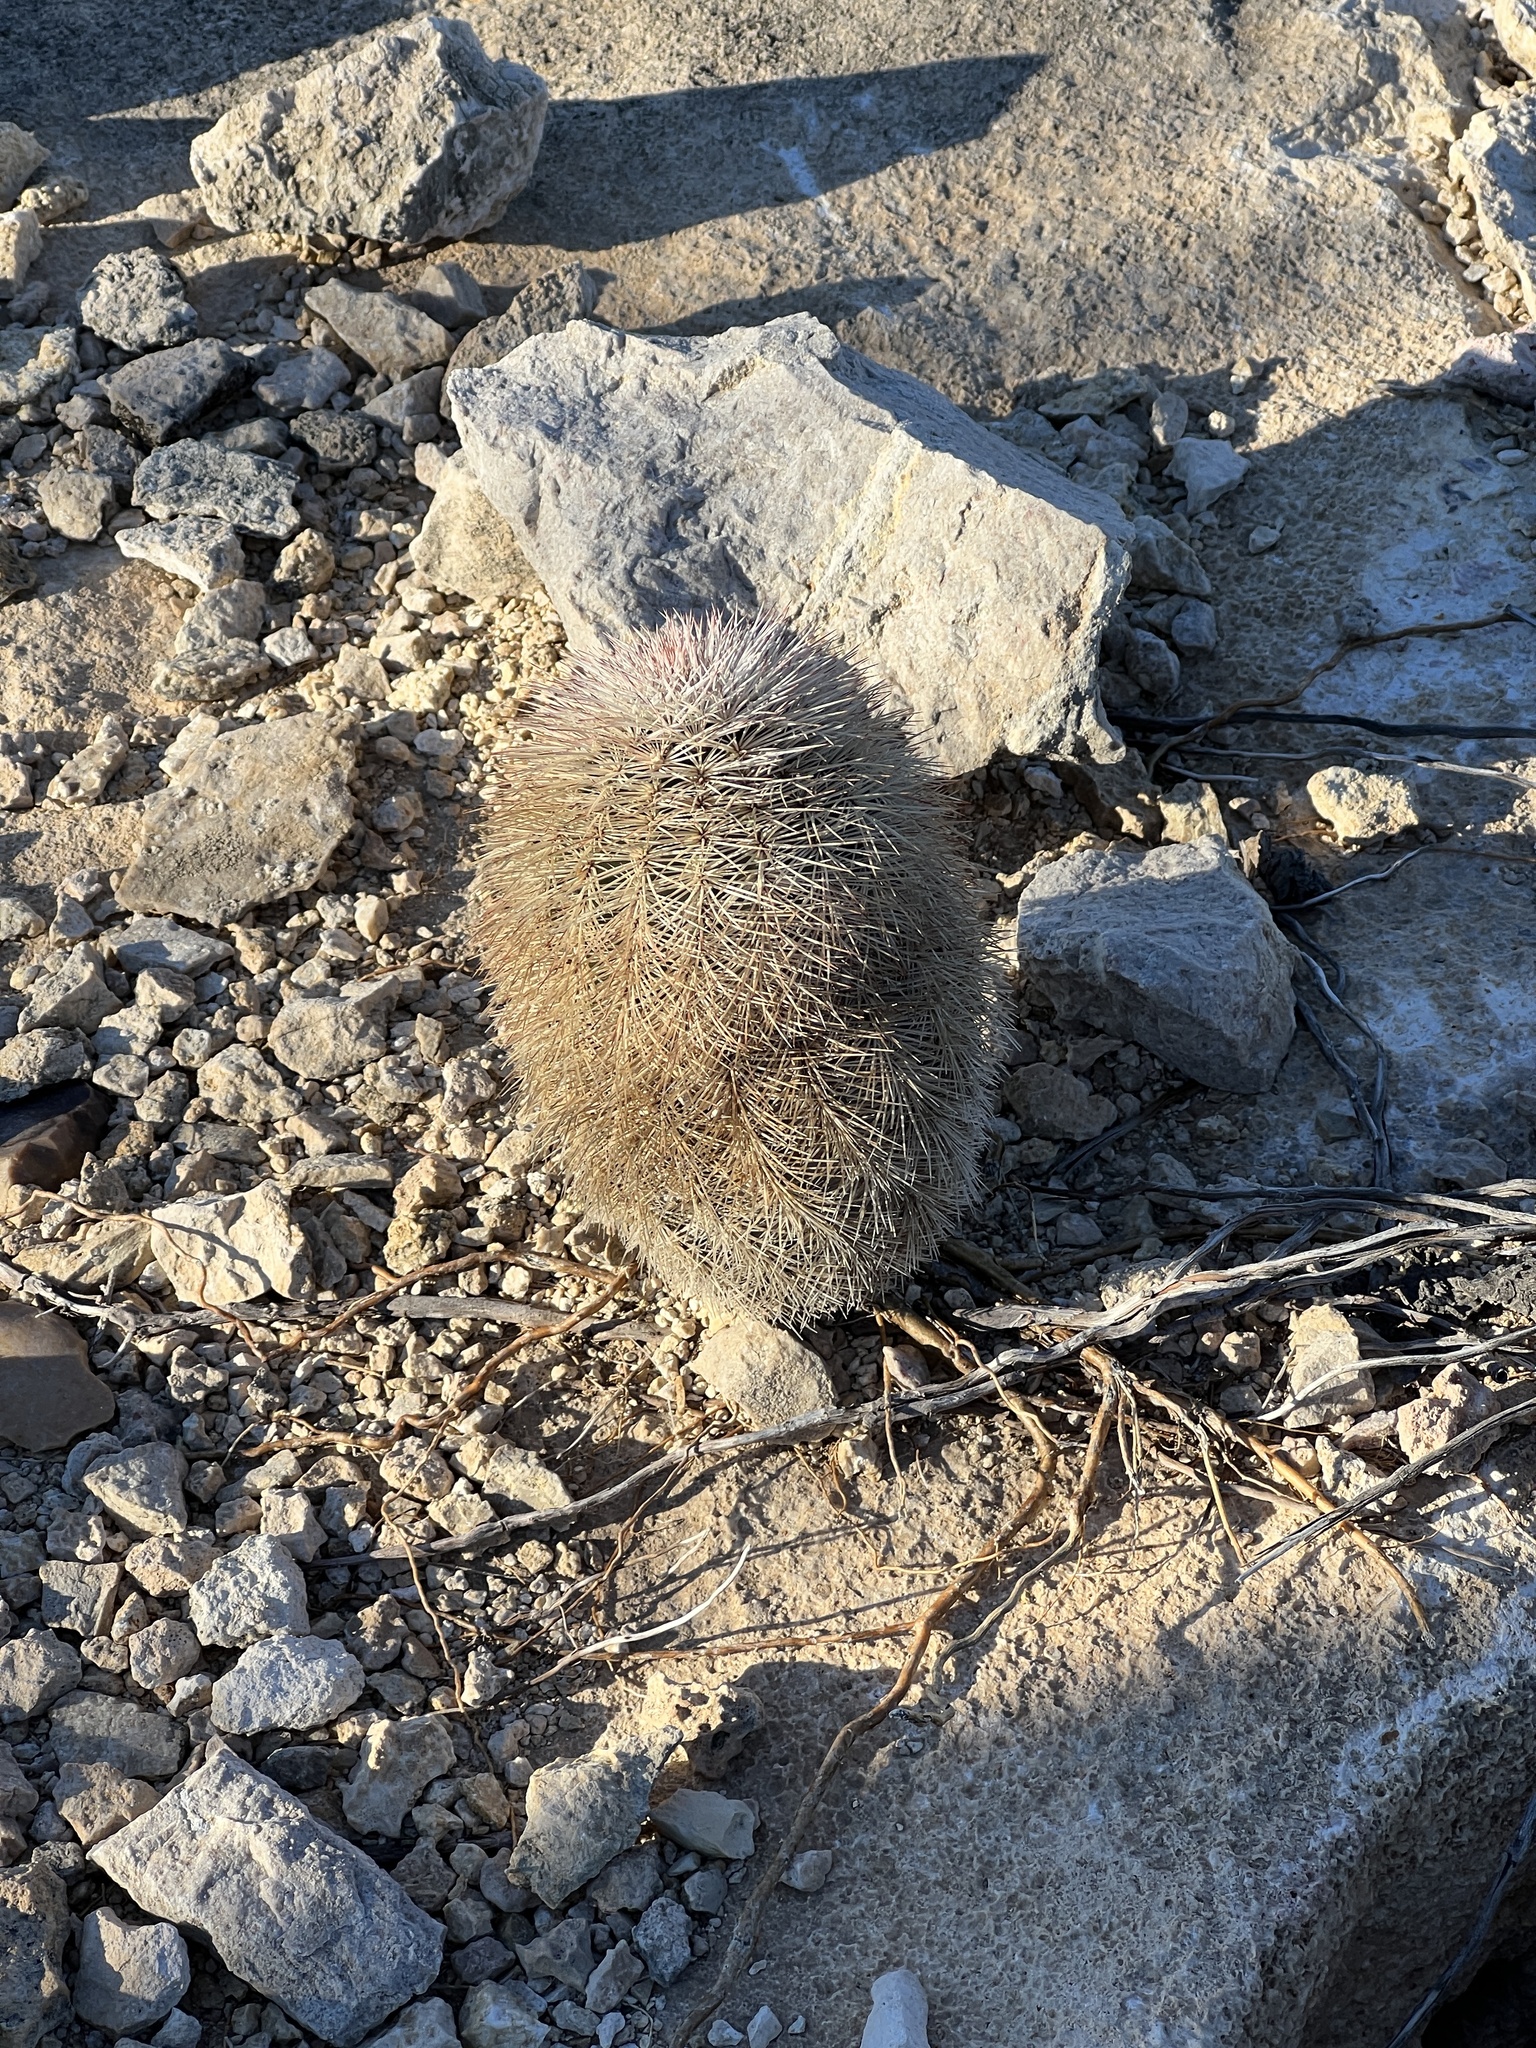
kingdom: Plantae
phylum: Tracheophyta
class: Magnoliopsida
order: Caryophyllales
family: Cactaceae
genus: Echinocereus
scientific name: Echinocereus dasyacanthus
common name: Spiny hedgehog cactus
